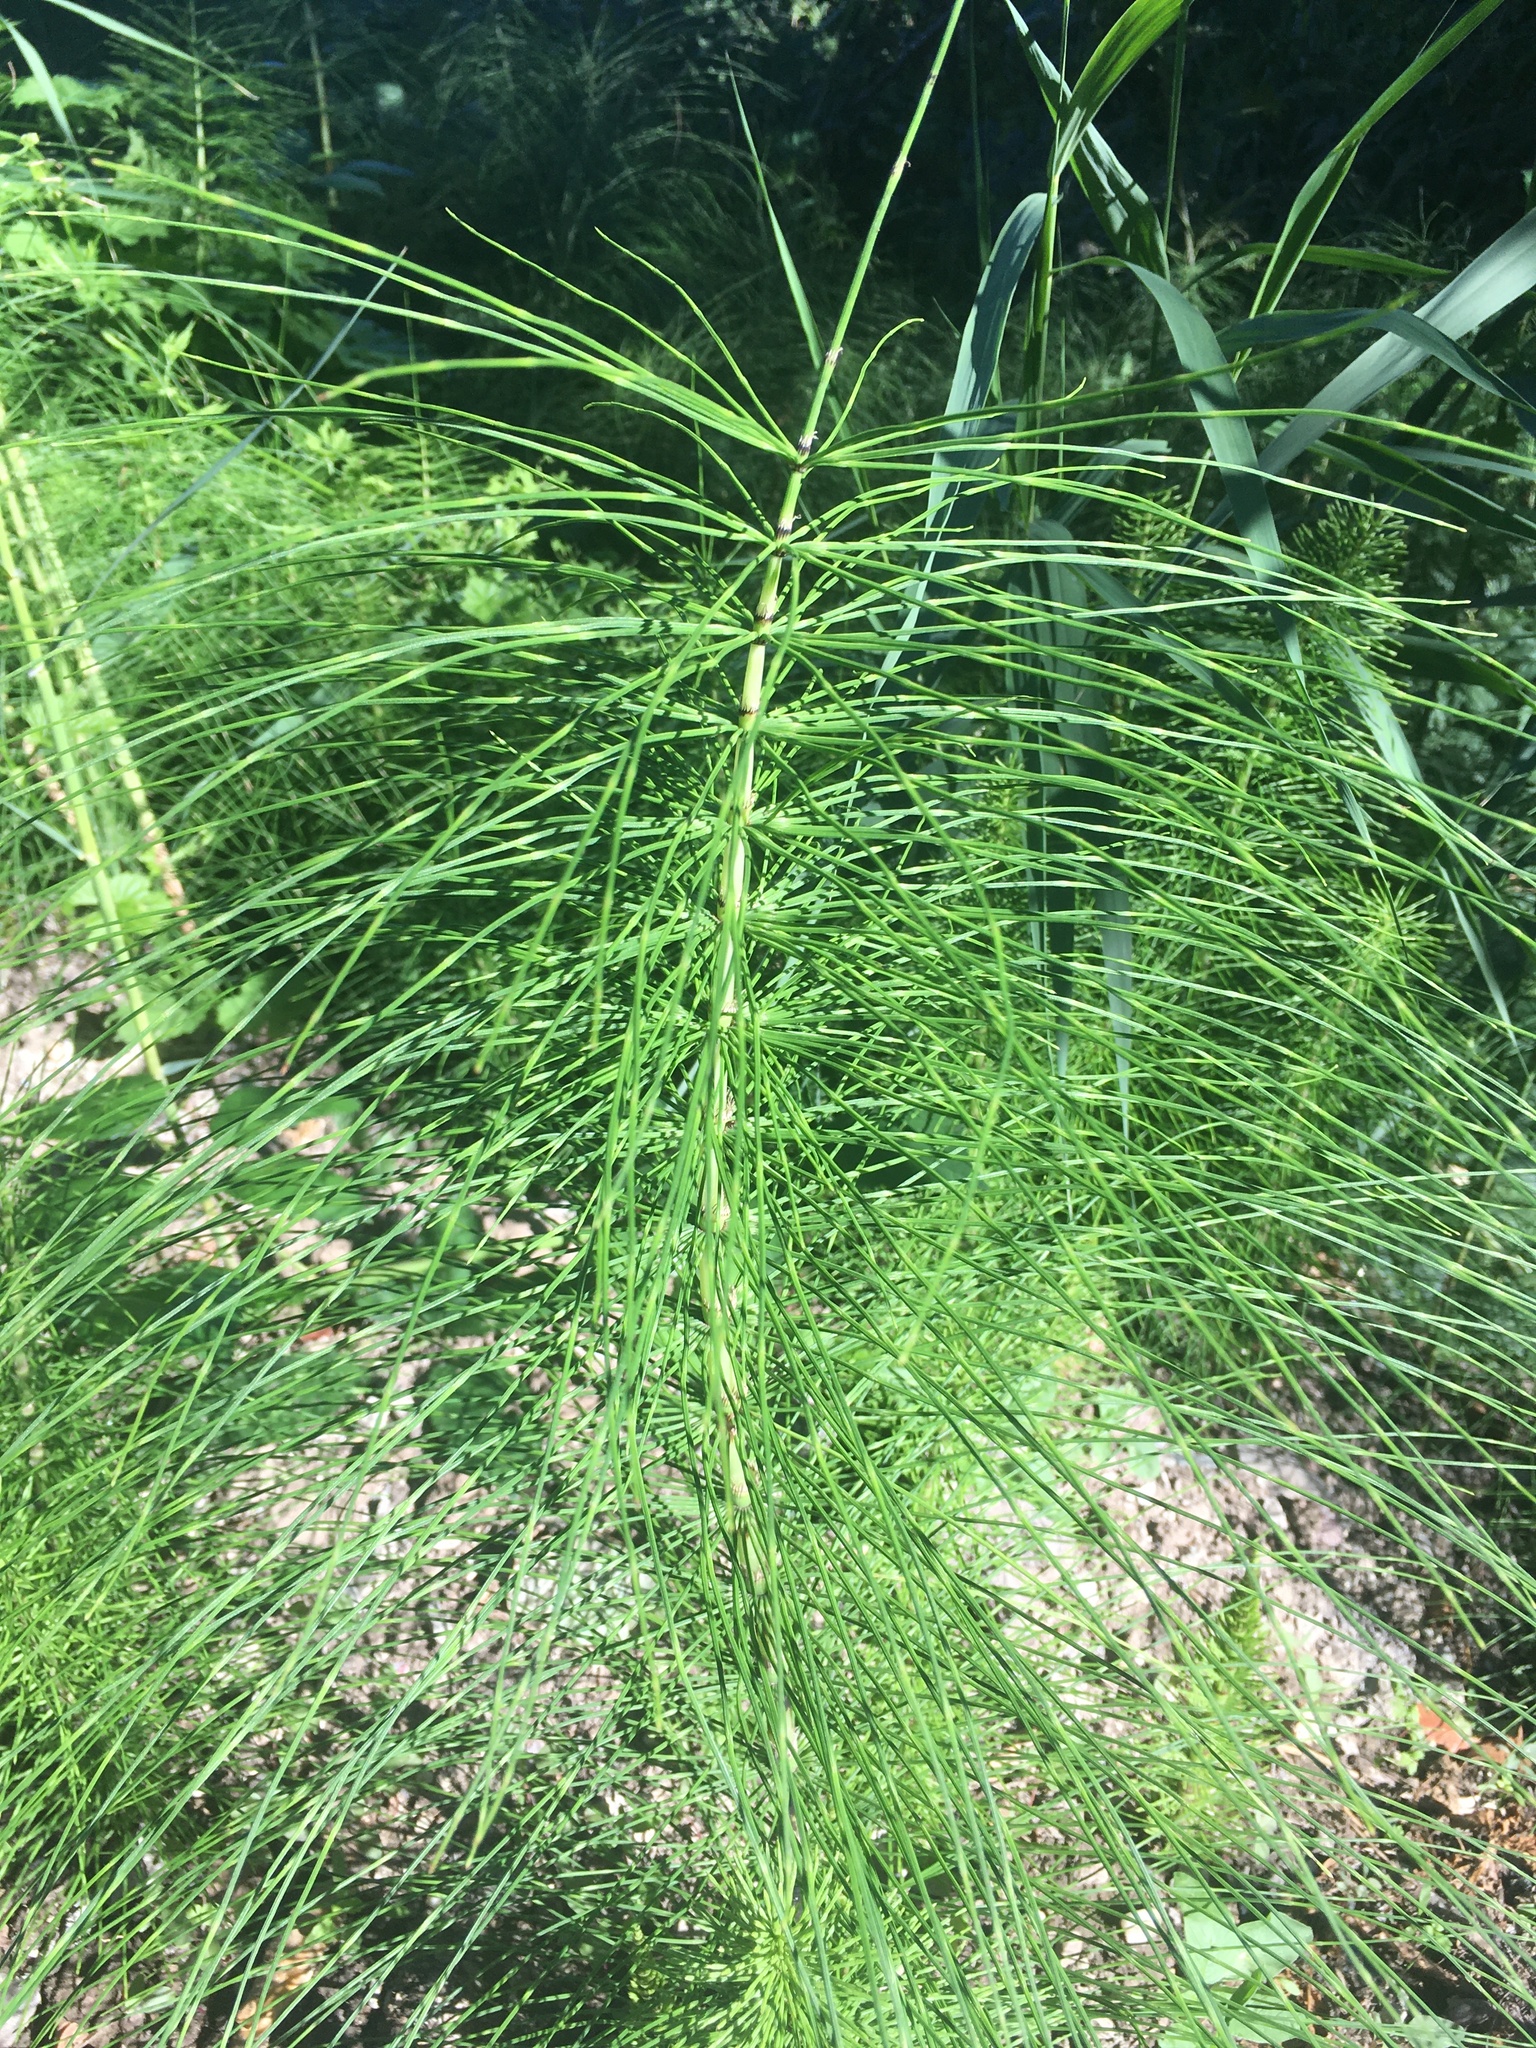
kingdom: Plantae
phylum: Tracheophyta
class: Polypodiopsida
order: Equisetales
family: Equisetaceae
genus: Equisetum
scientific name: Equisetum telmateia
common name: Great horsetail
